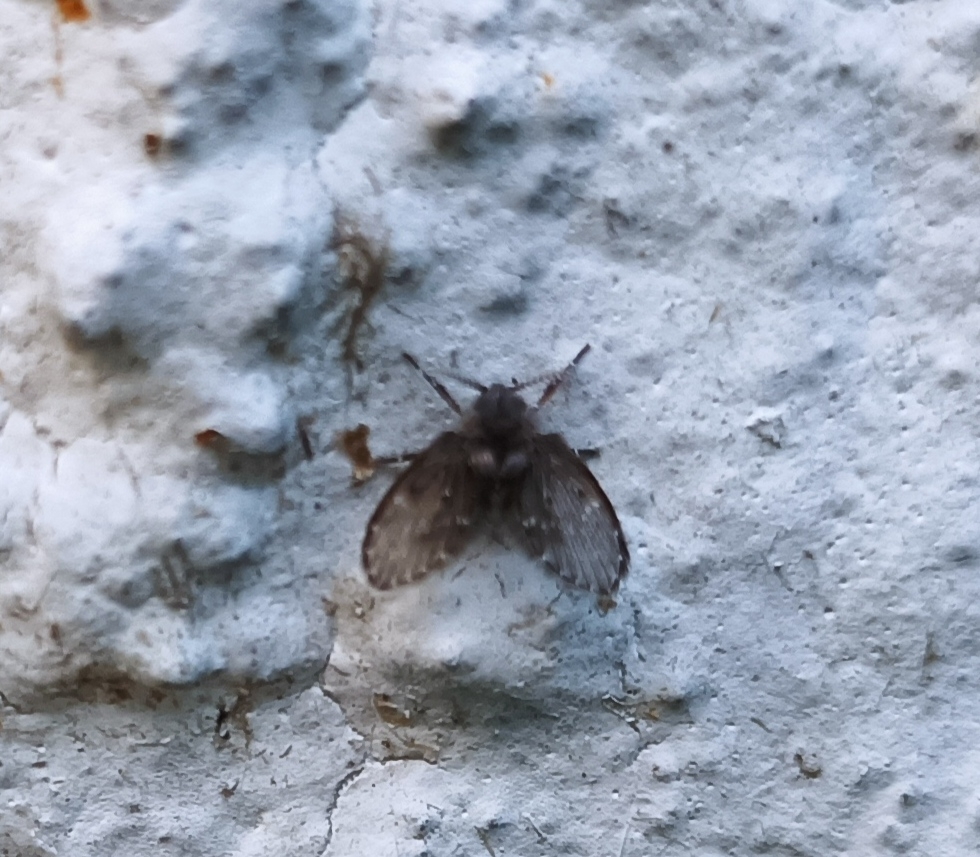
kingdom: Animalia
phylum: Arthropoda
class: Insecta
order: Diptera
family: Psychodidae
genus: Clogmia
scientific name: Clogmia albipunctatus
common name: White-spotted moth fly
